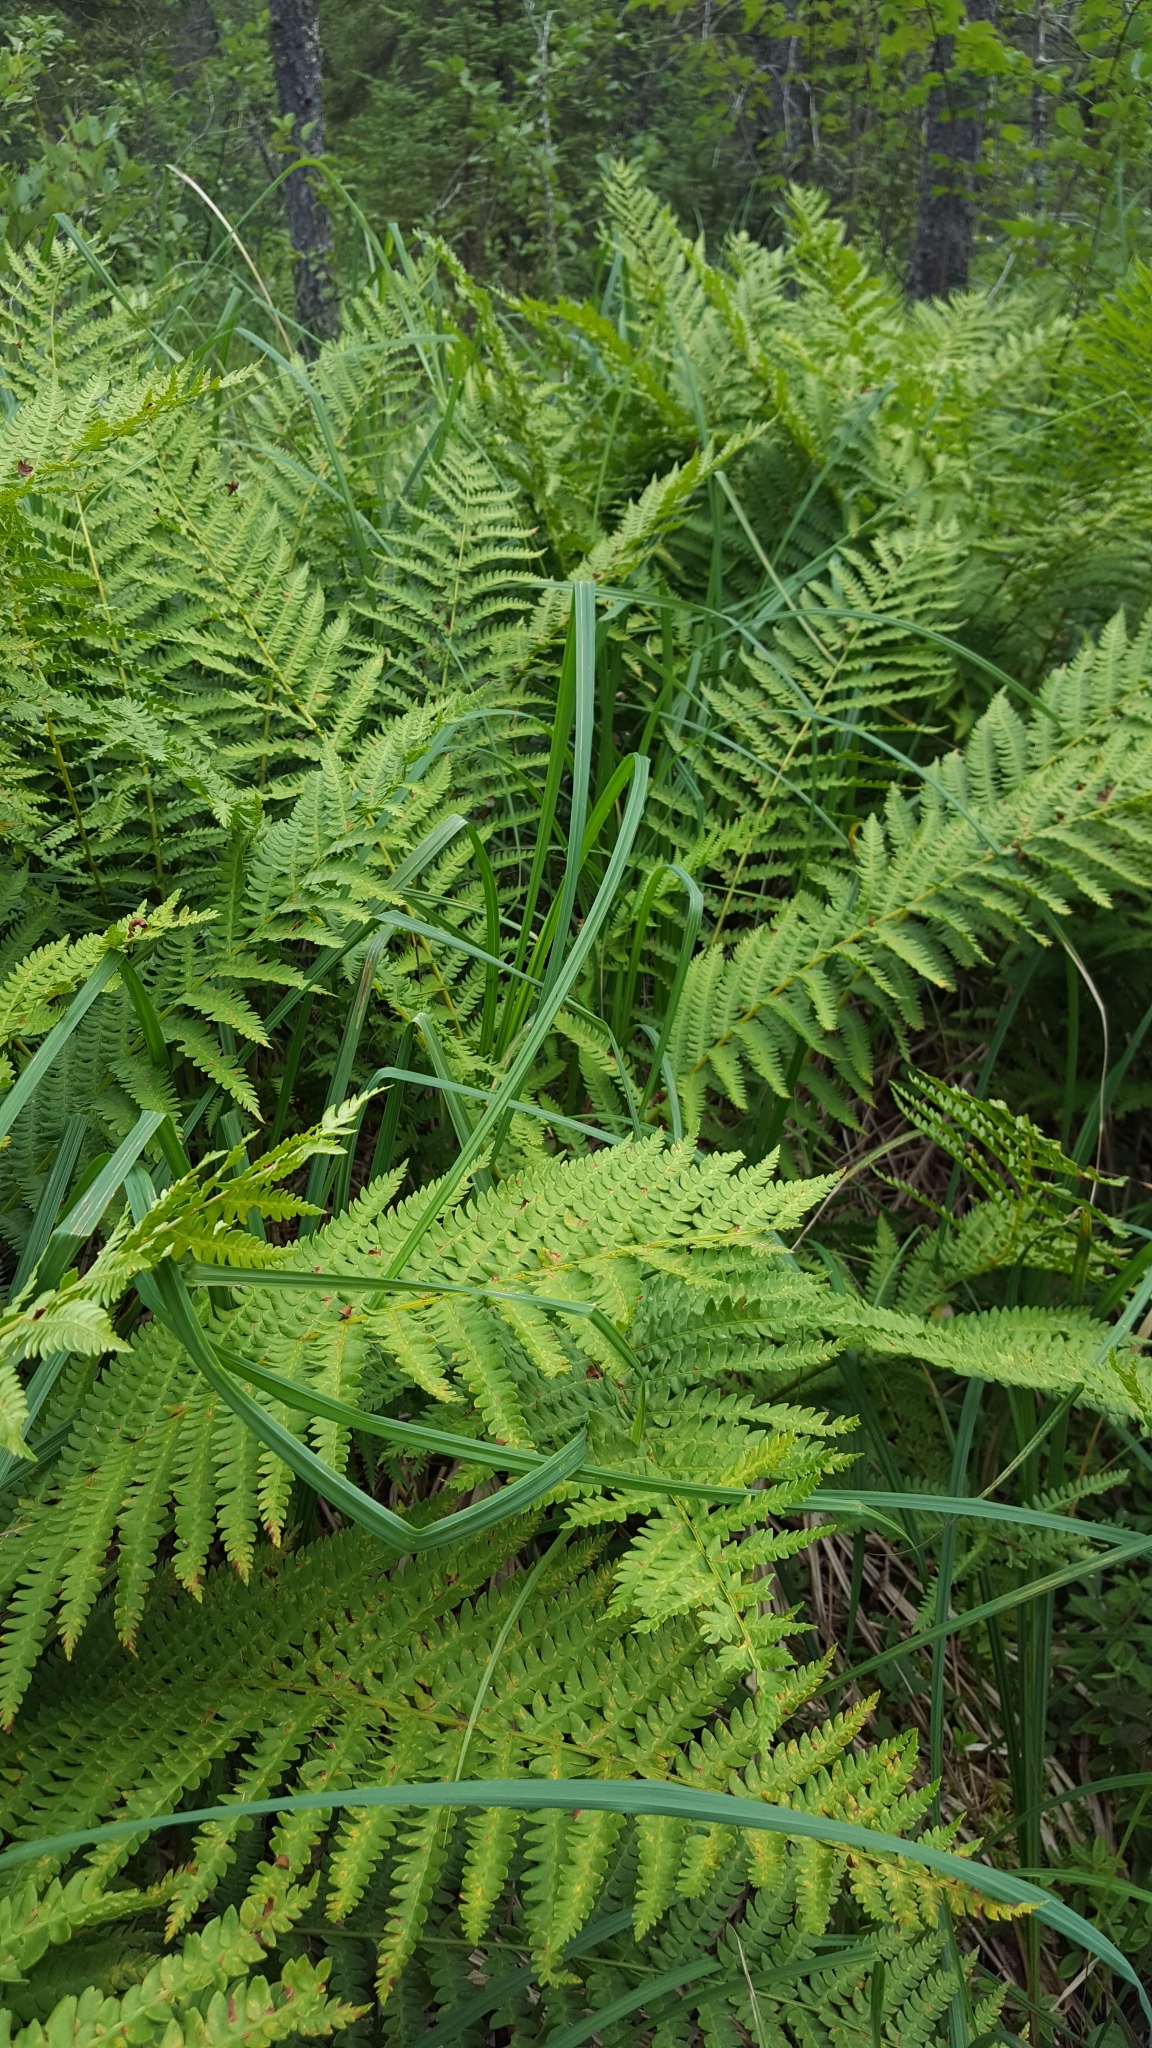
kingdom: Plantae
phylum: Tracheophyta
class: Polypodiopsida
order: Osmundales
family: Osmundaceae
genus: Osmundastrum
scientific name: Osmundastrum cinnamomeum
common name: Cinnamon fern
